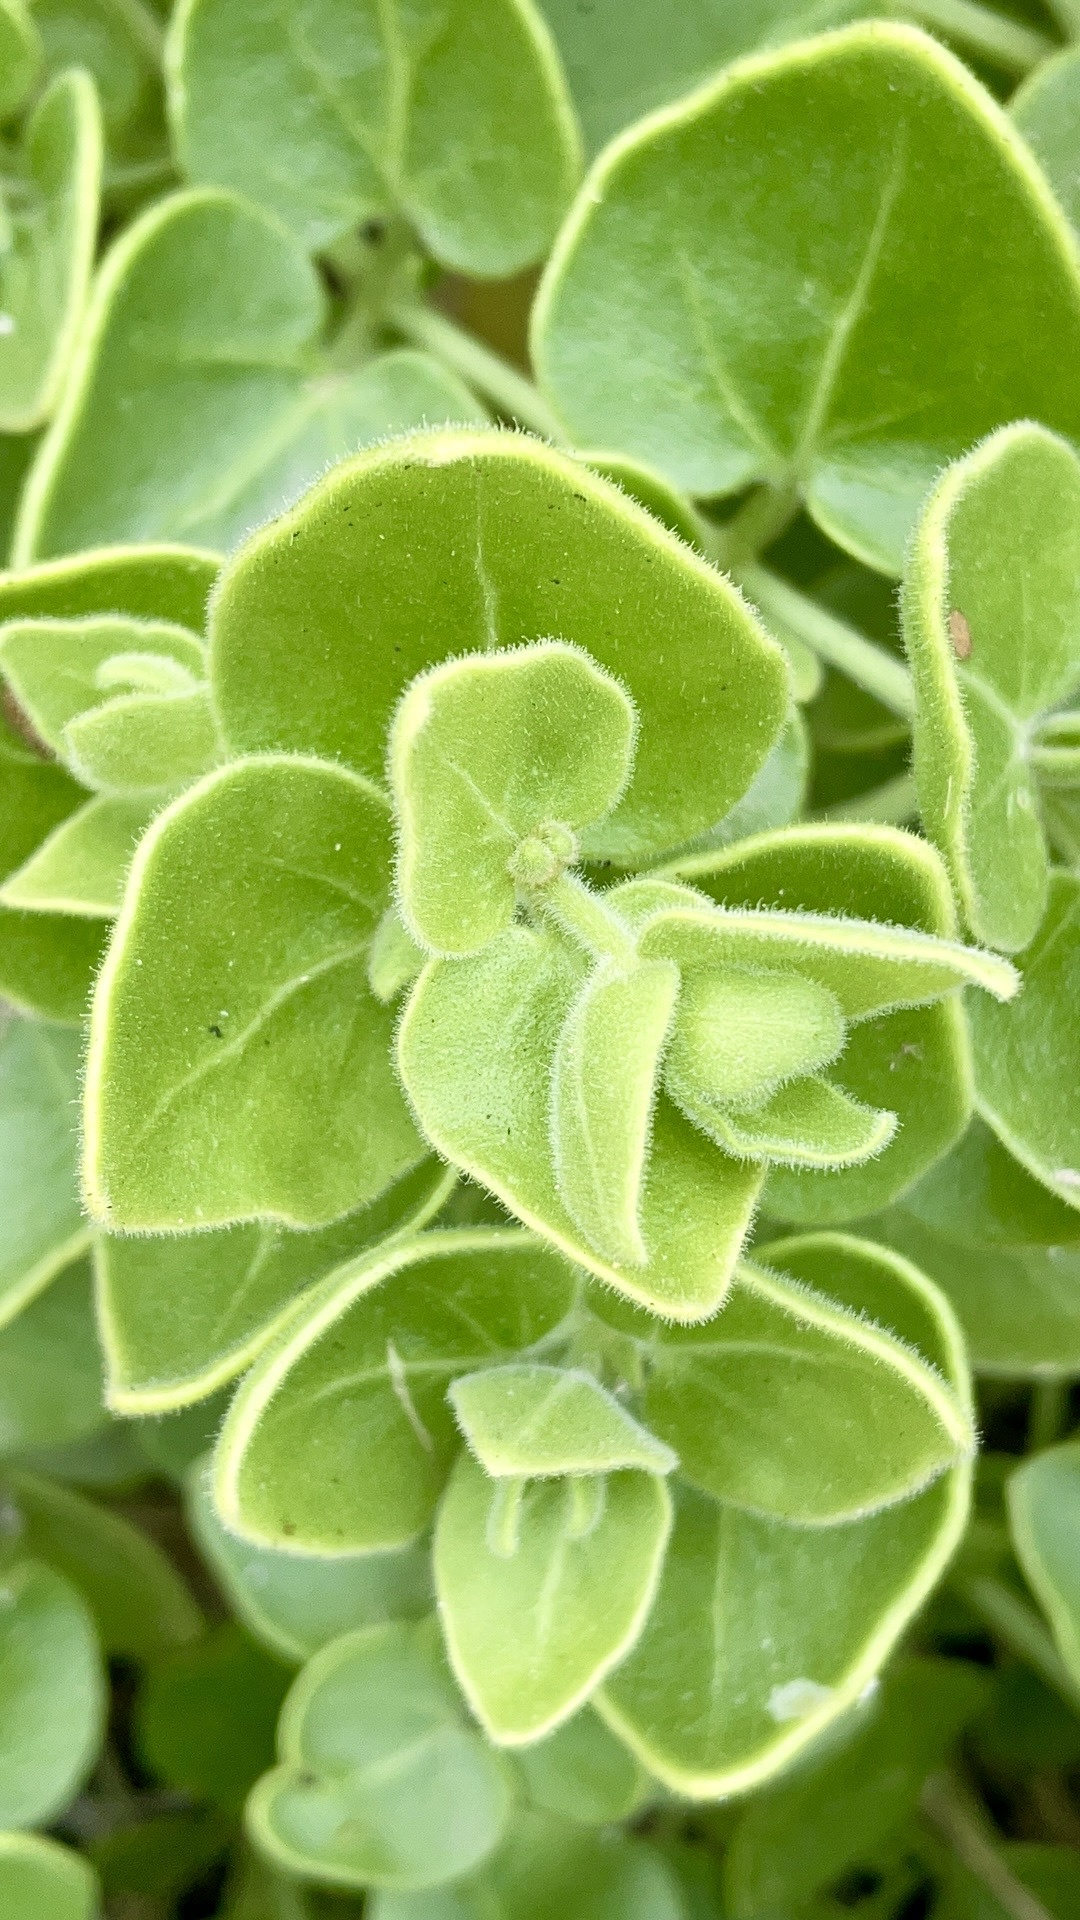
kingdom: Plantae
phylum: Tracheophyta
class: Magnoliopsida
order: Caryophyllales
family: Nyctaginaceae
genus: Mirabilis
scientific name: Mirabilis laevis
